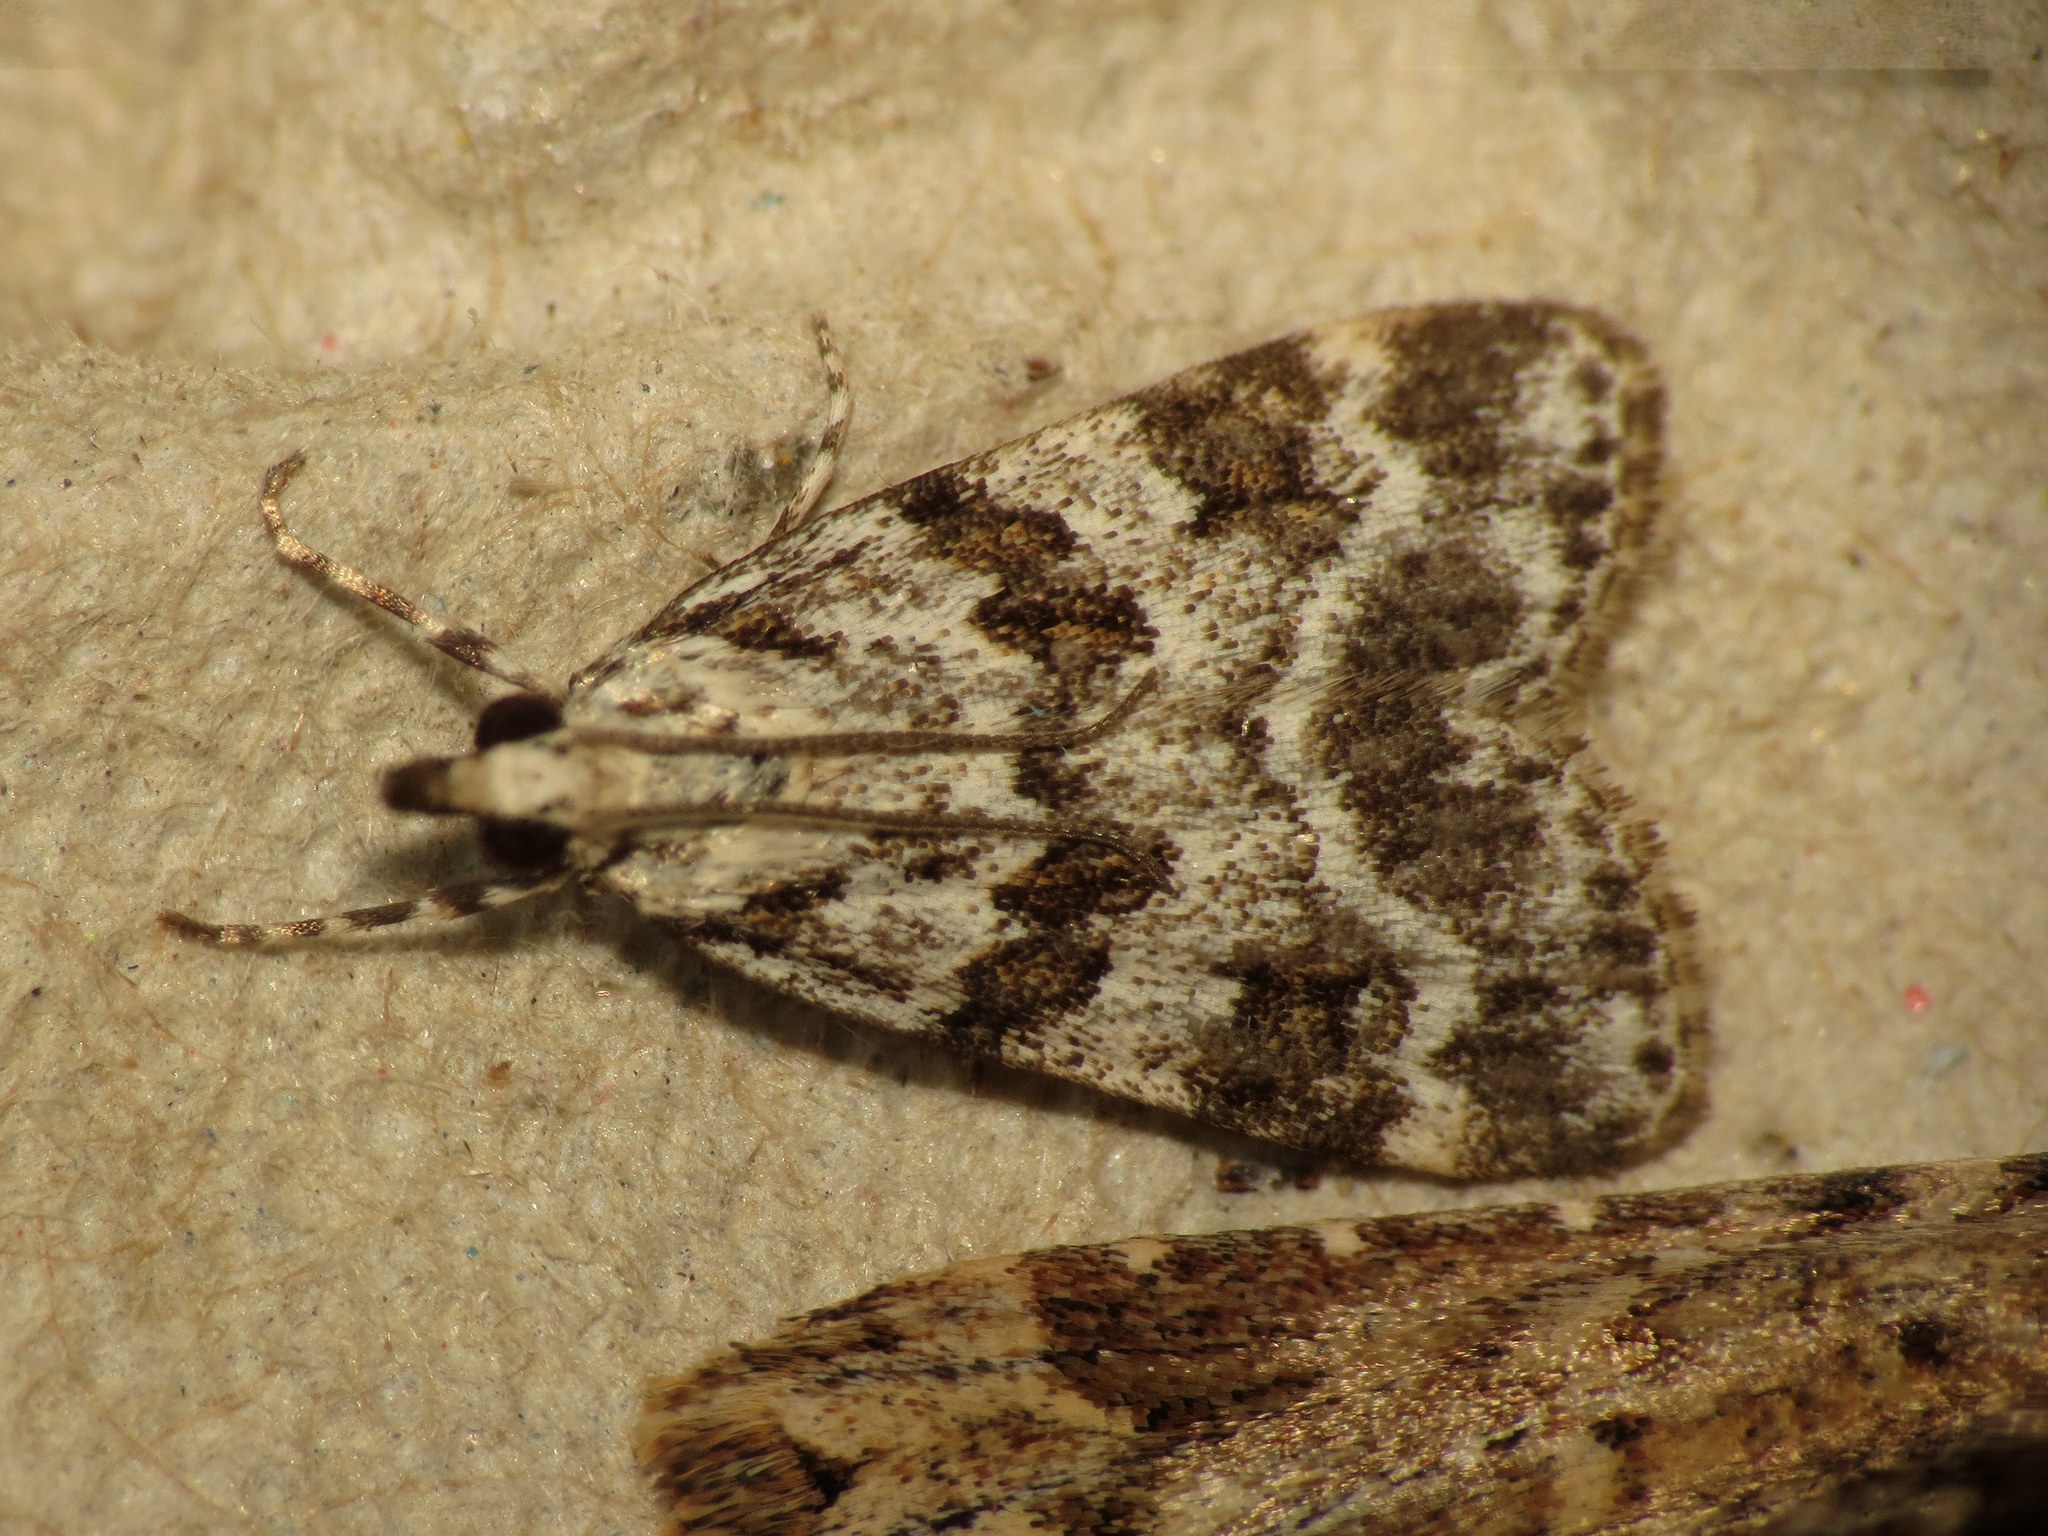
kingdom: Animalia
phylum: Arthropoda
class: Insecta
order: Lepidoptera
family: Crambidae
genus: Scoparia
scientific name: Scoparia pyralella
